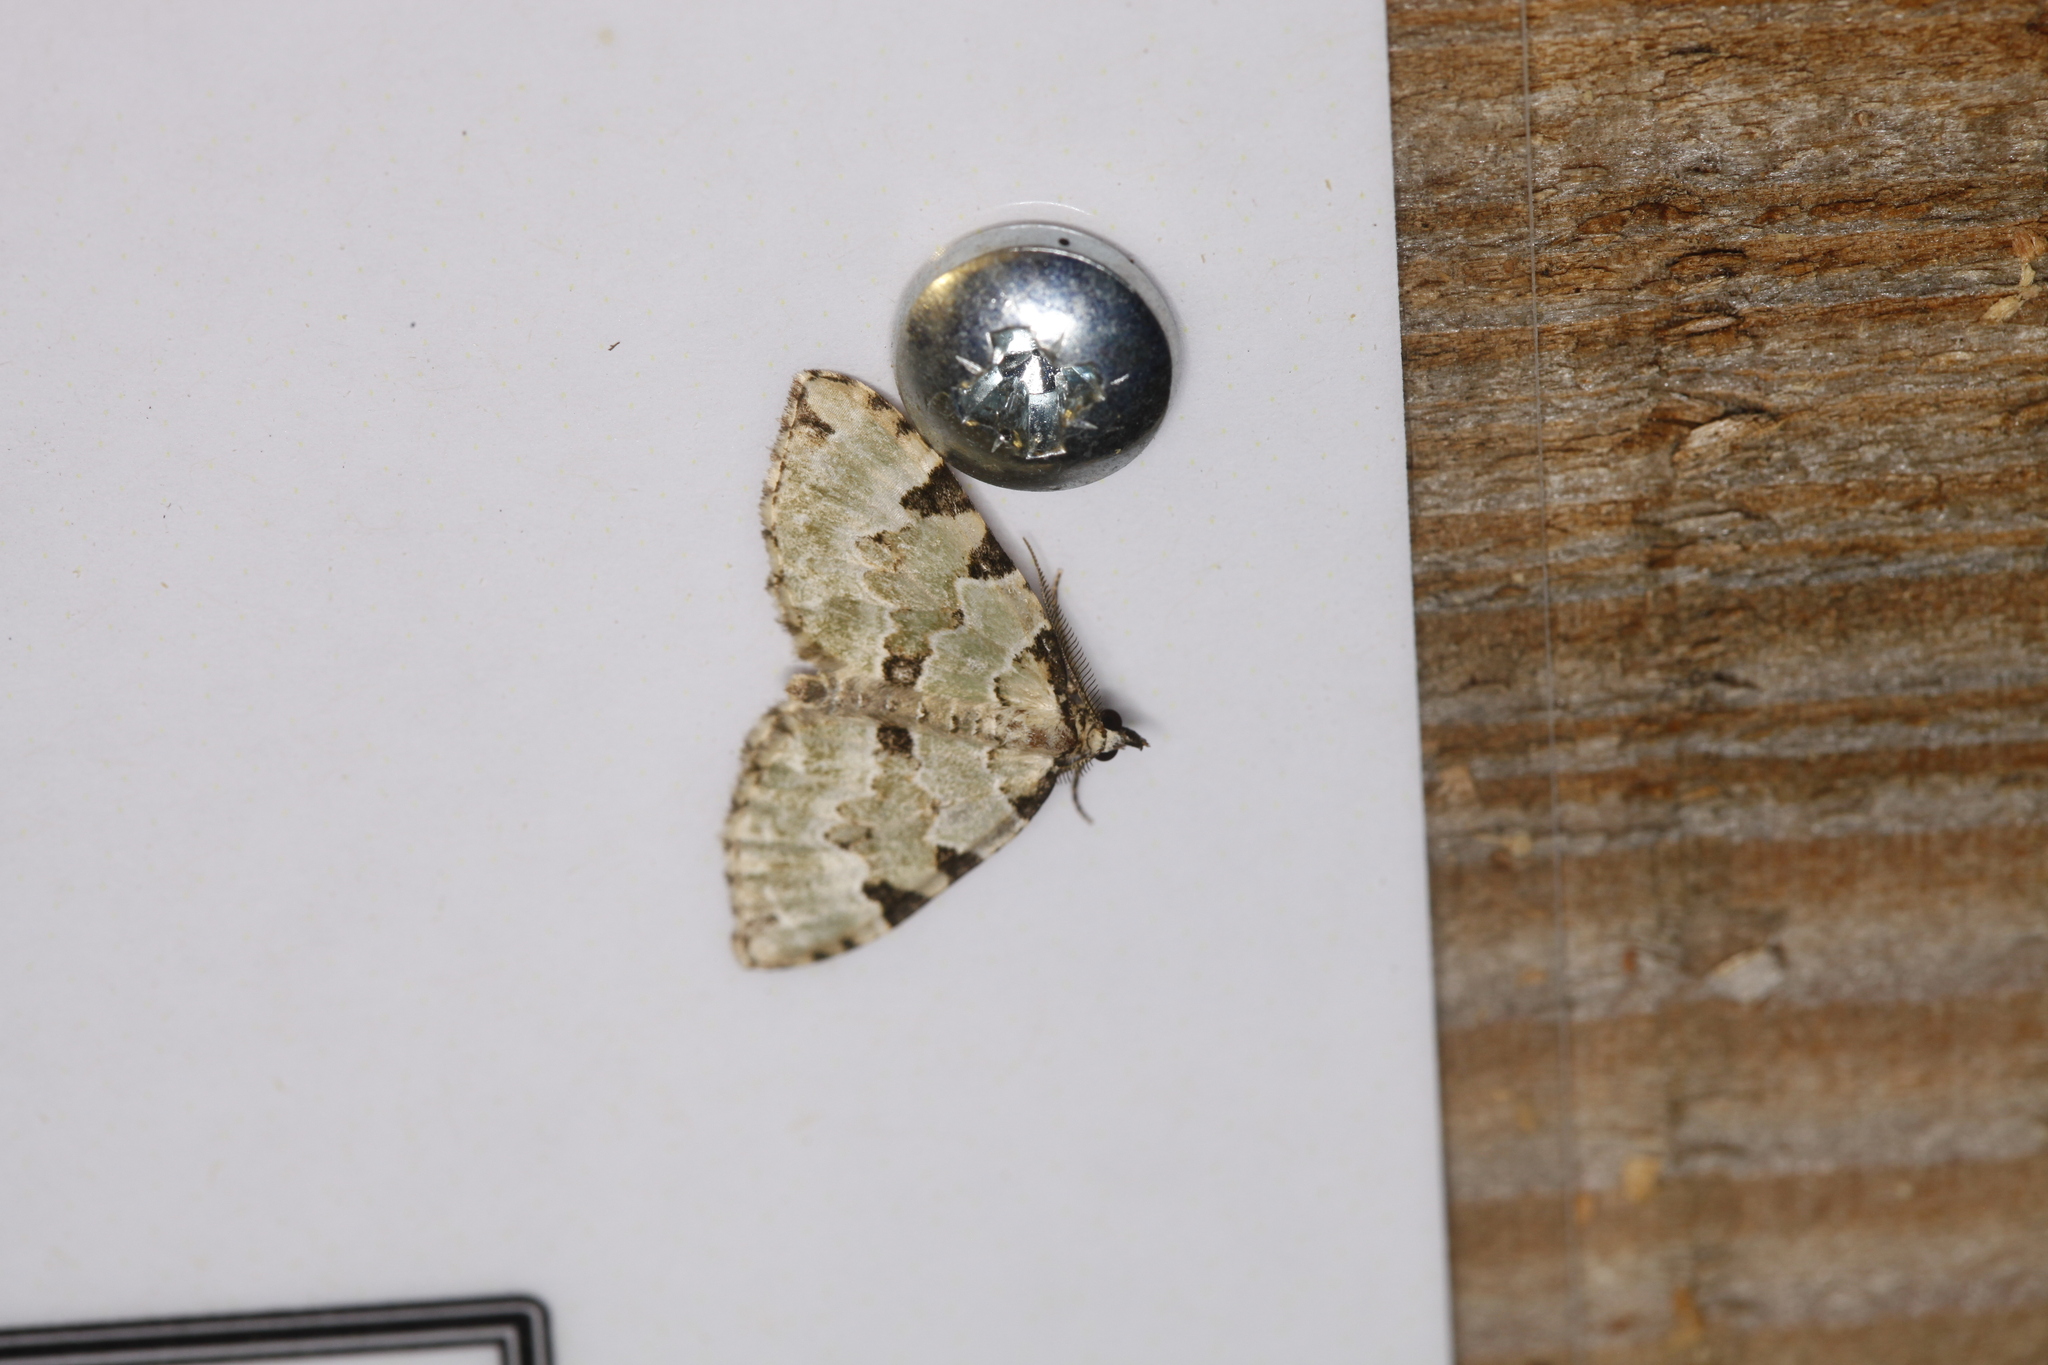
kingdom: Animalia
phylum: Arthropoda
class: Insecta
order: Lepidoptera
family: Geometridae
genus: Colostygia
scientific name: Colostygia pectinataria
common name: Green carpet
